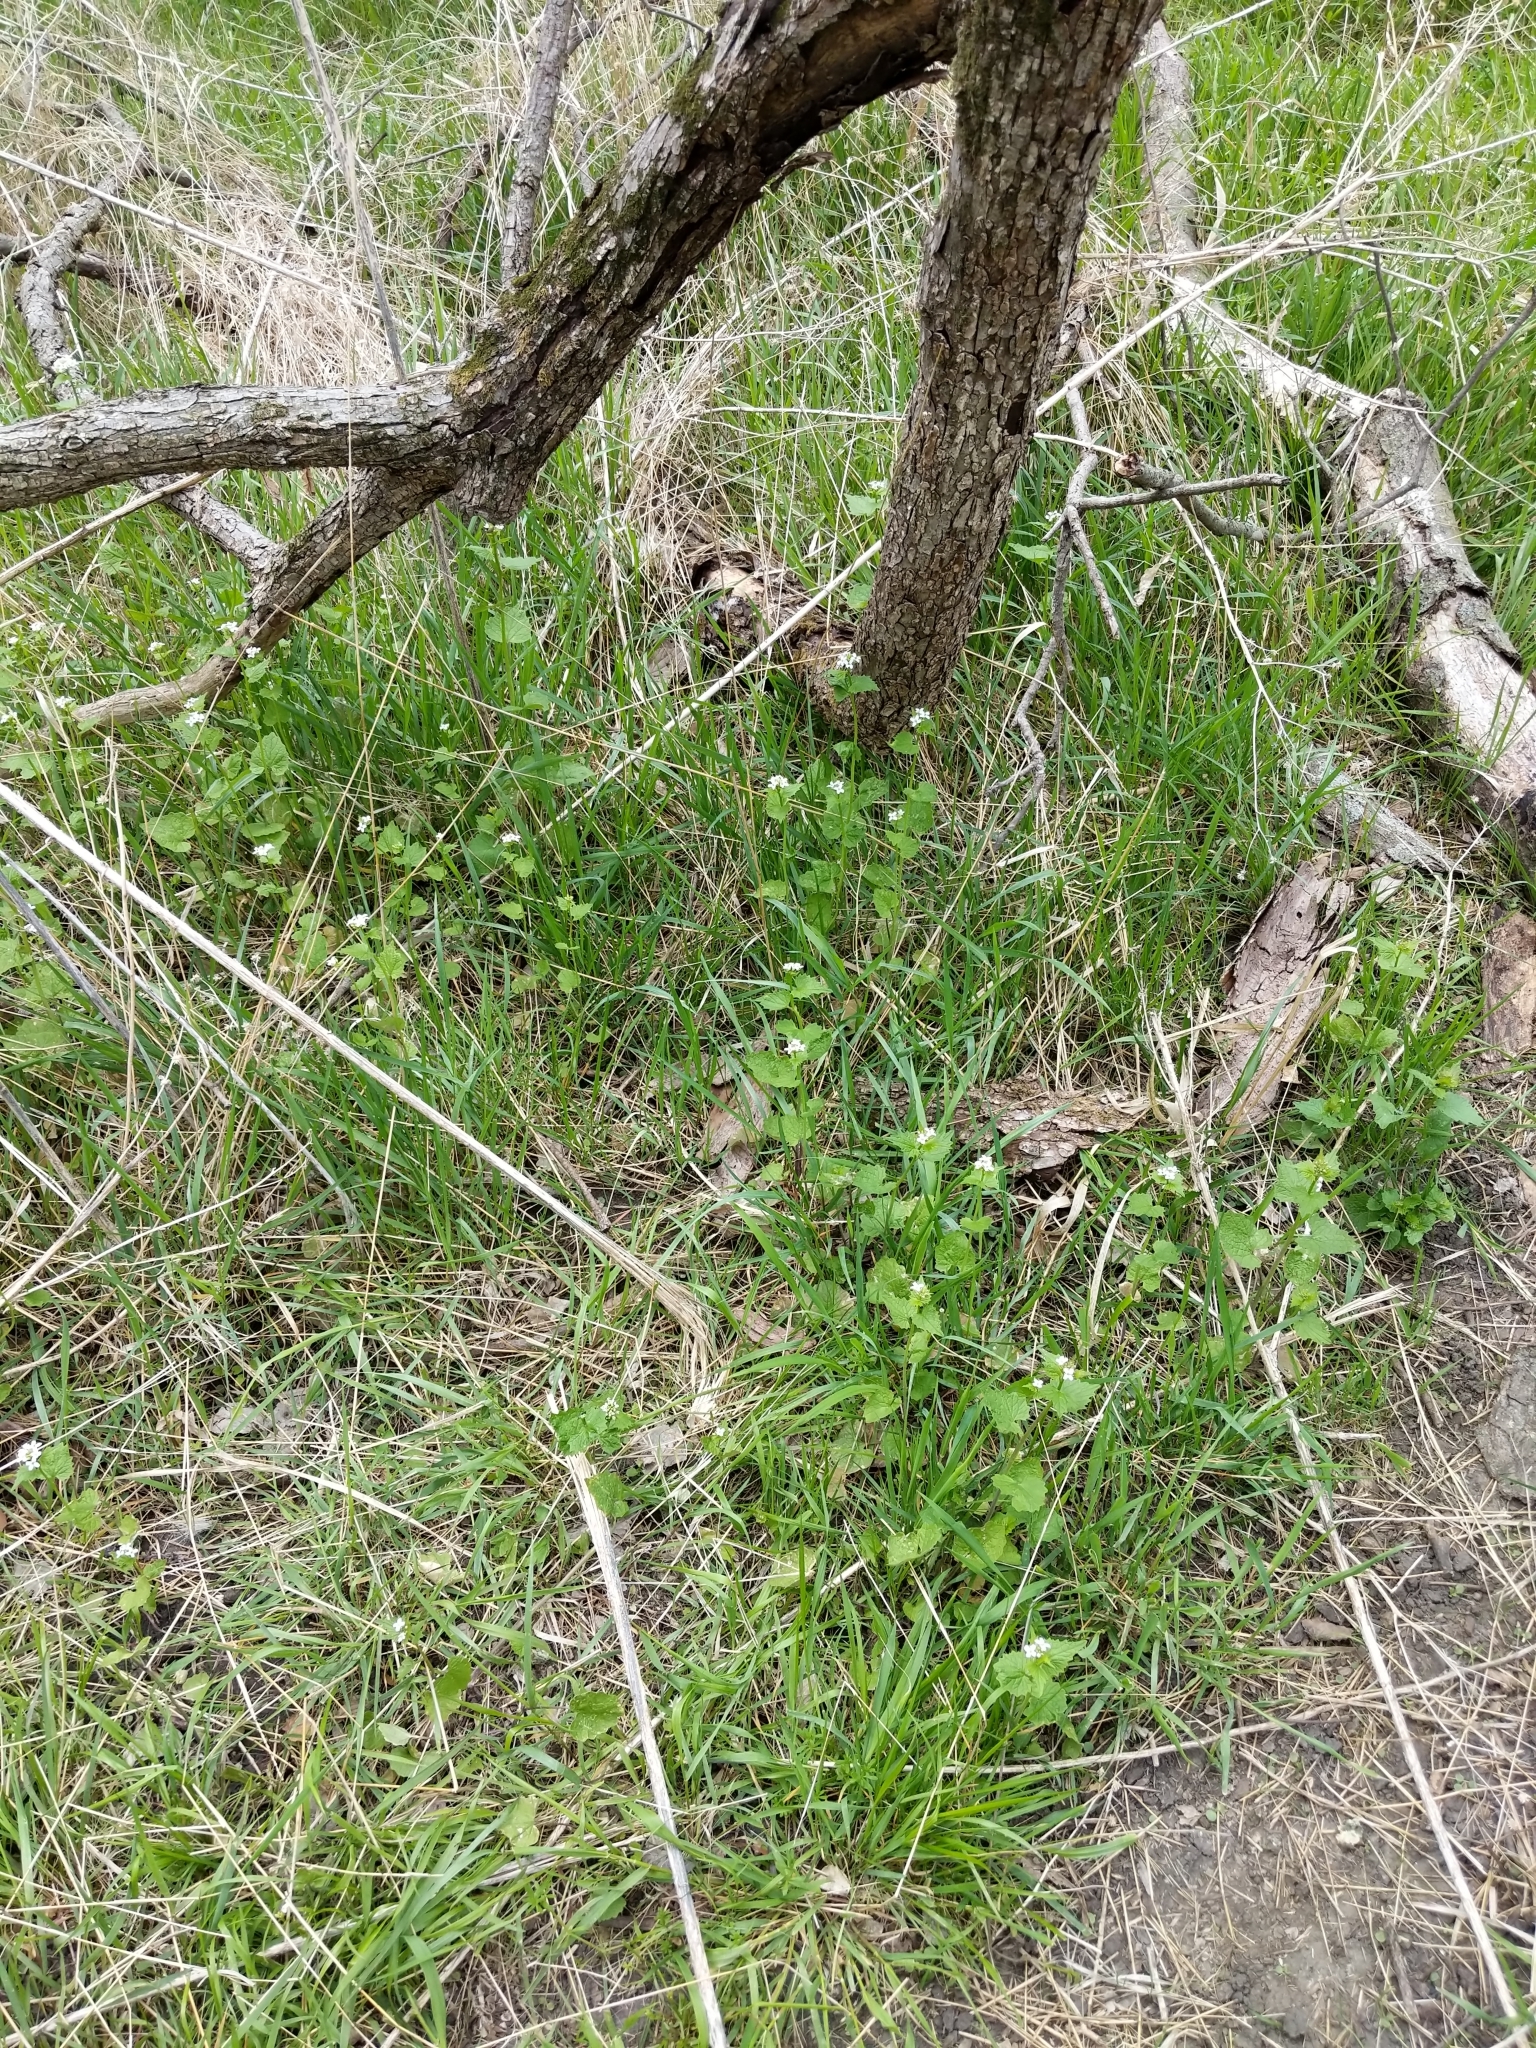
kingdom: Plantae
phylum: Tracheophyta
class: Magnoliopsida
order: Brassicales
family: Brassicaceae
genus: Alliaria
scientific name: Alliaria petiolata
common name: Garlic mustard
